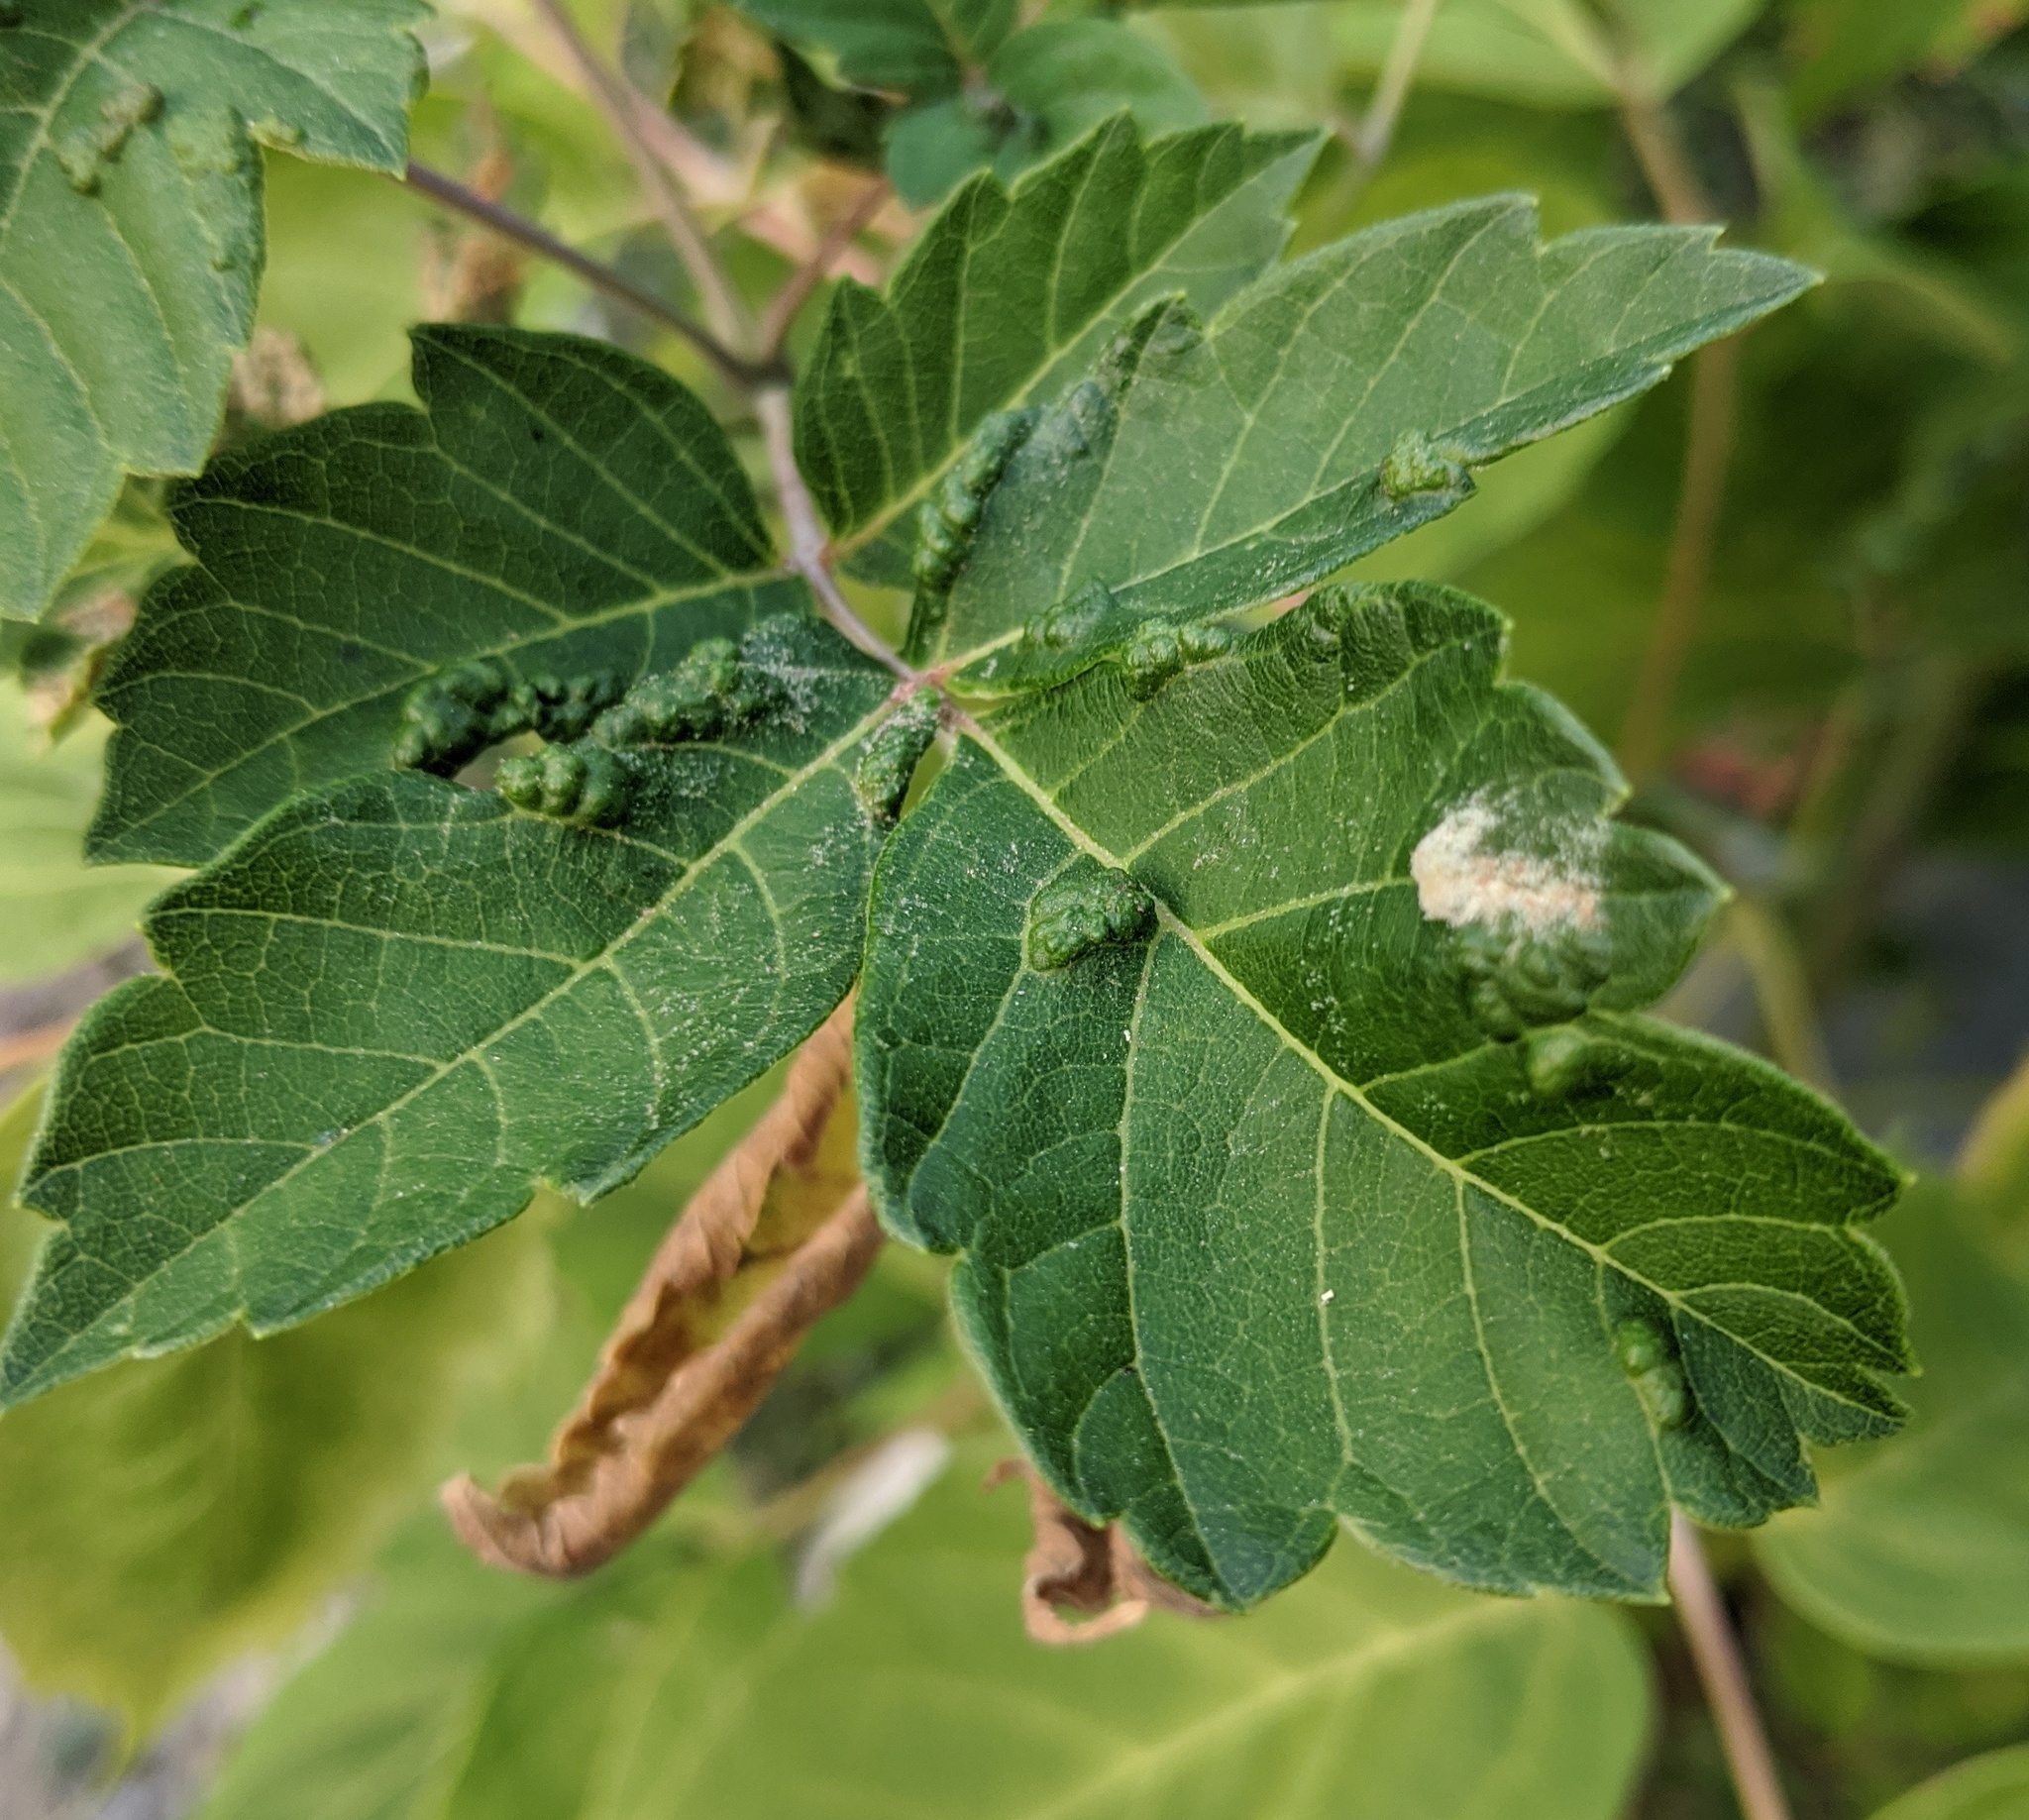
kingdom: Animalia
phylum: Arthropoda
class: Arachnida
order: Trombidiformes
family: Eriophyidae
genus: Aceria
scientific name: Aceria
